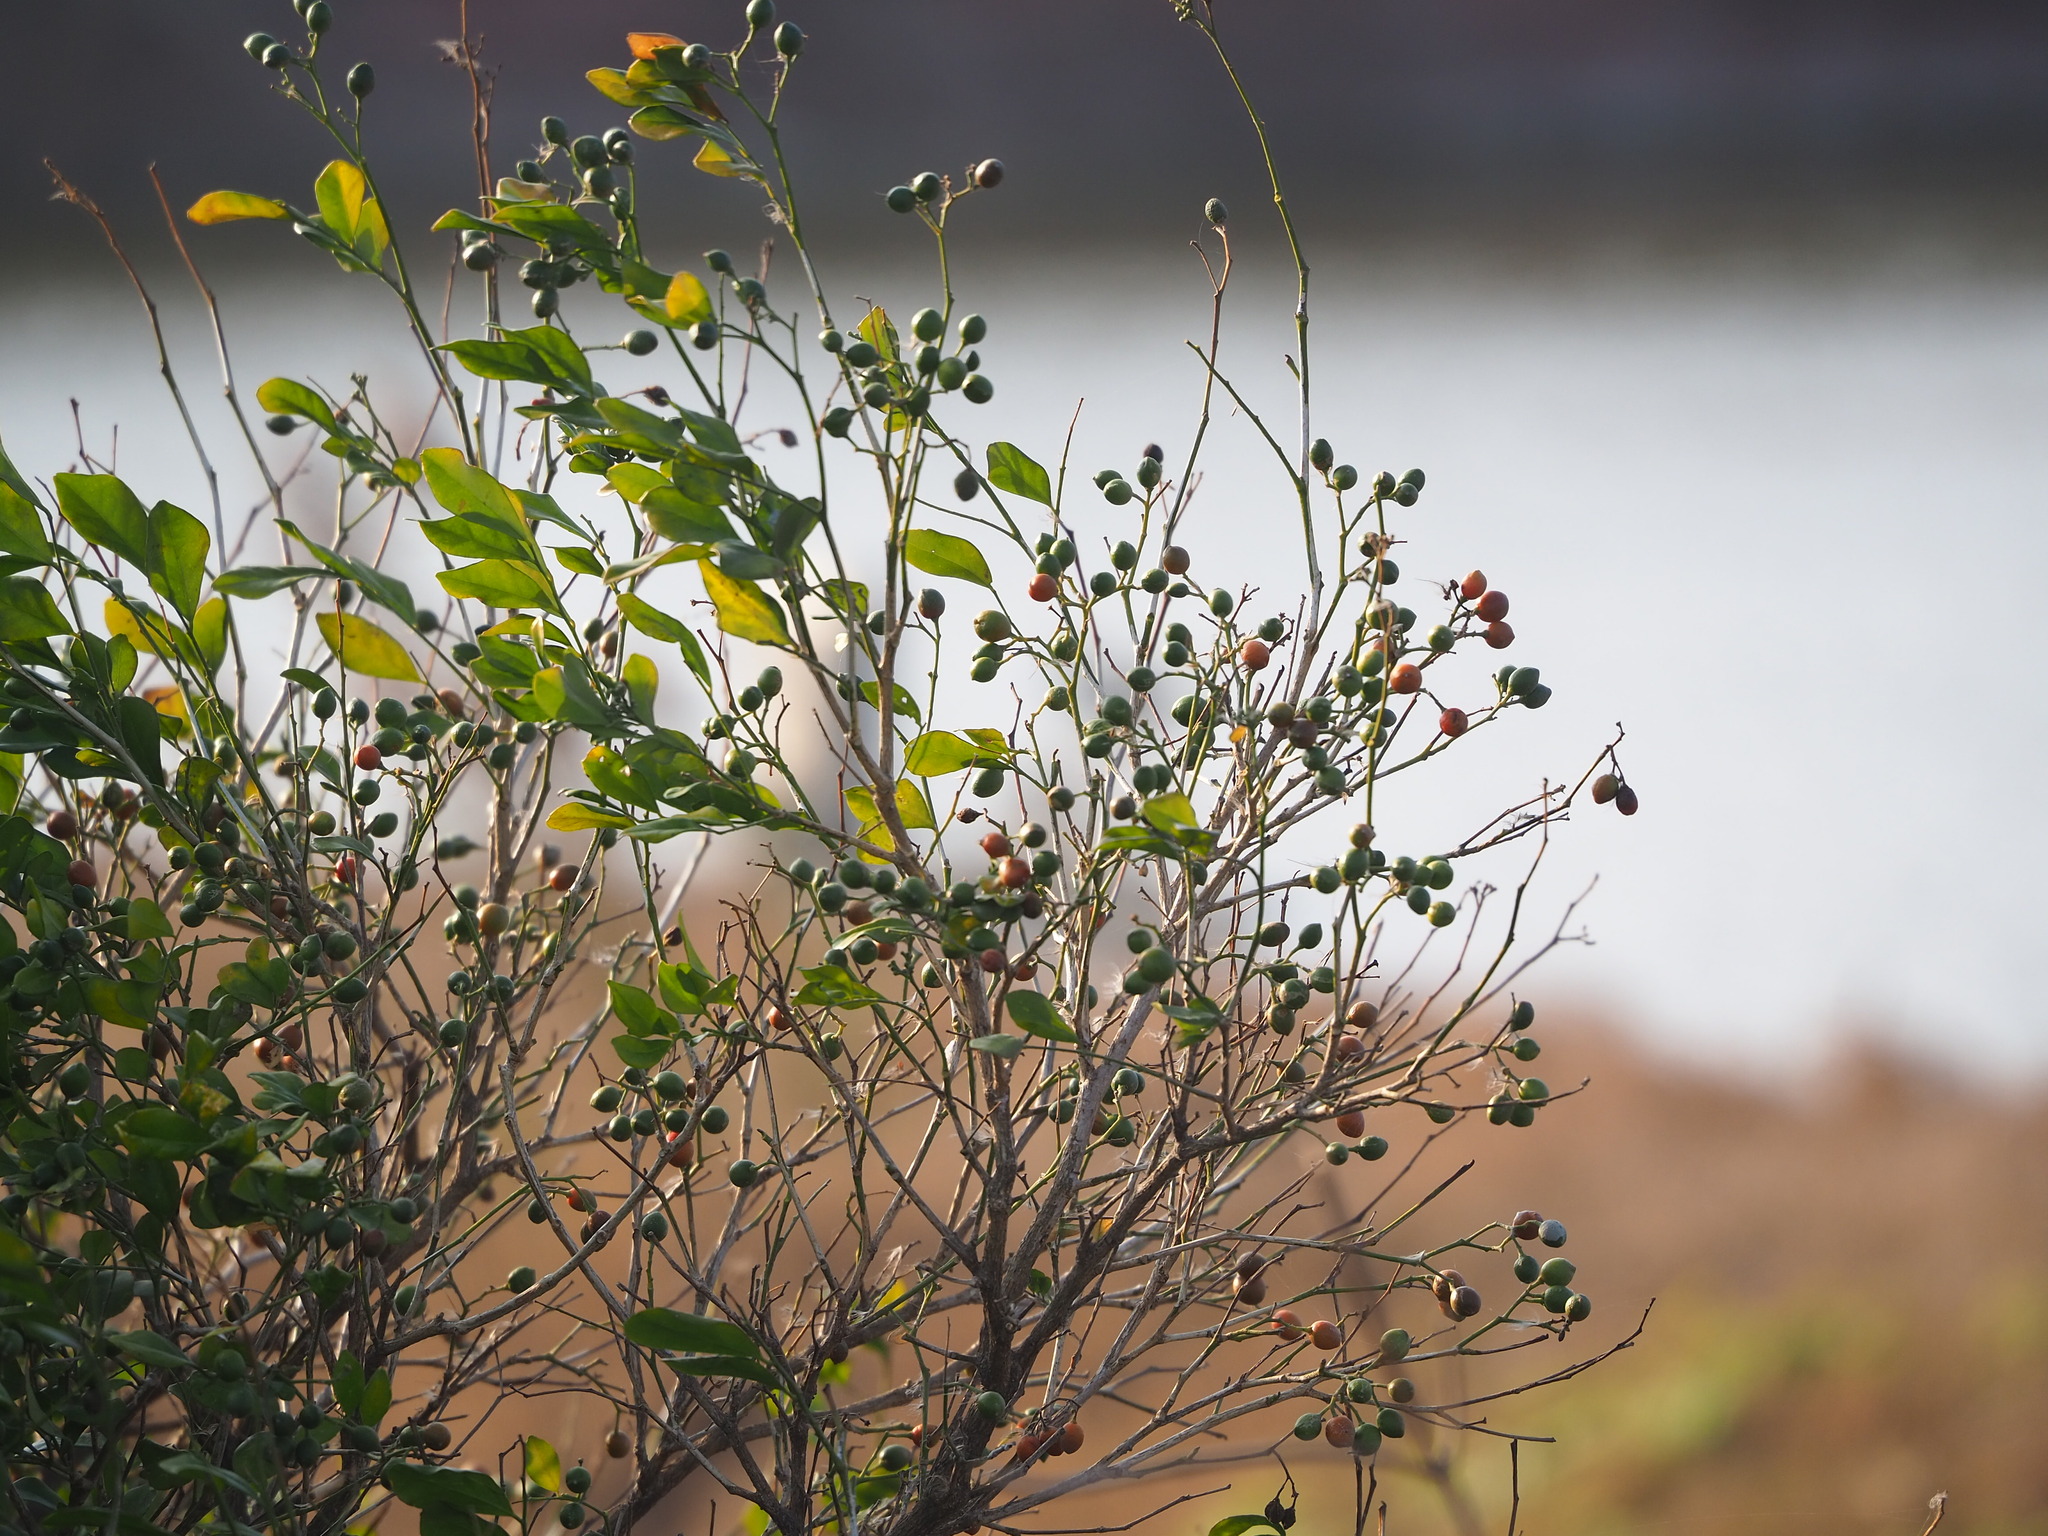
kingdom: Plantae
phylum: Tracheophyta
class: Magnoliopsida
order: Sapindales
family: Rutaceae
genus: Murraya
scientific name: Murraya paniculata
